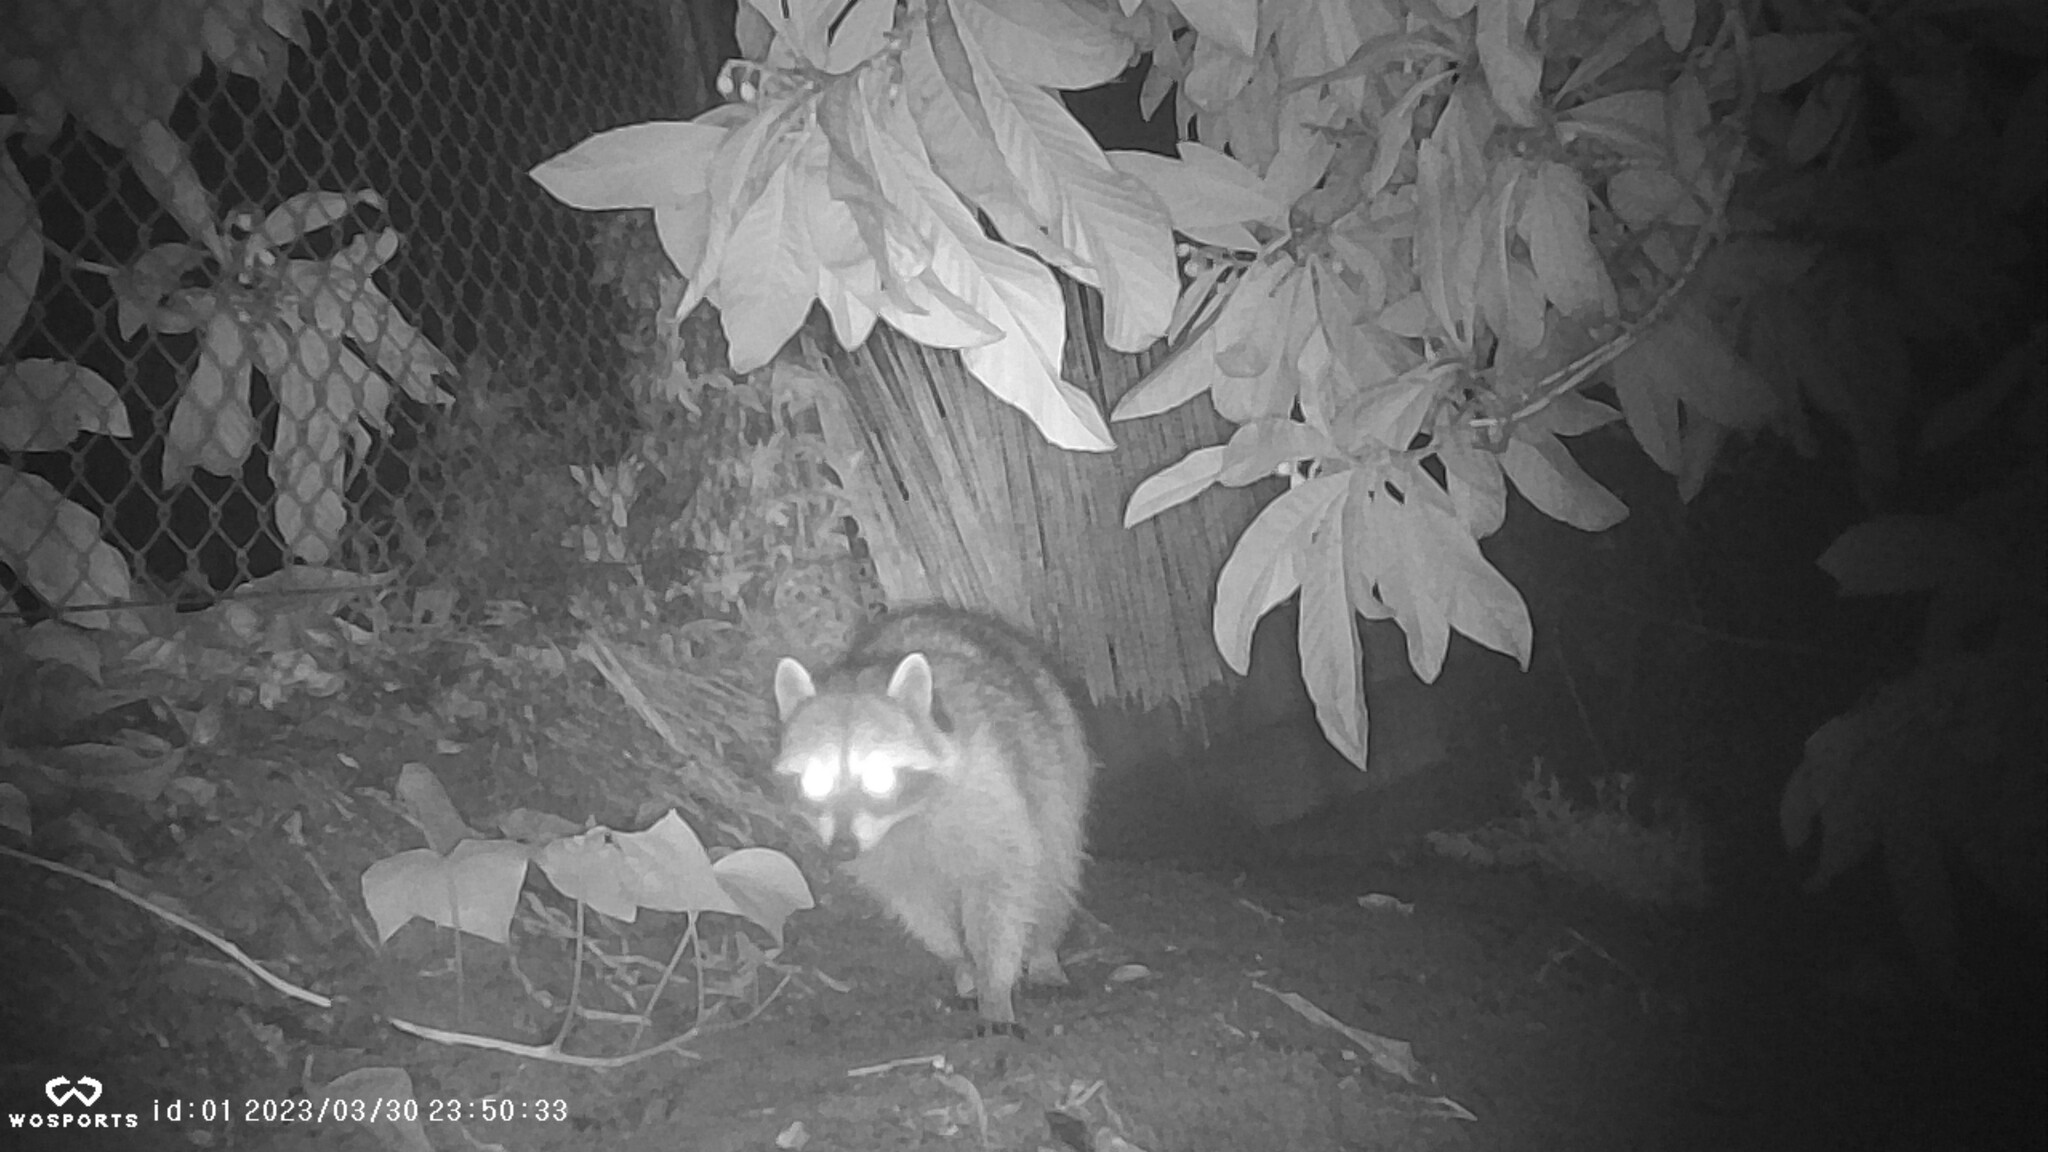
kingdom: Animalia
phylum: Chordata
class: Mammalia
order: Carnivora
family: Procyonidae
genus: Procyon
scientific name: Procyon lotor
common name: Raccoon
